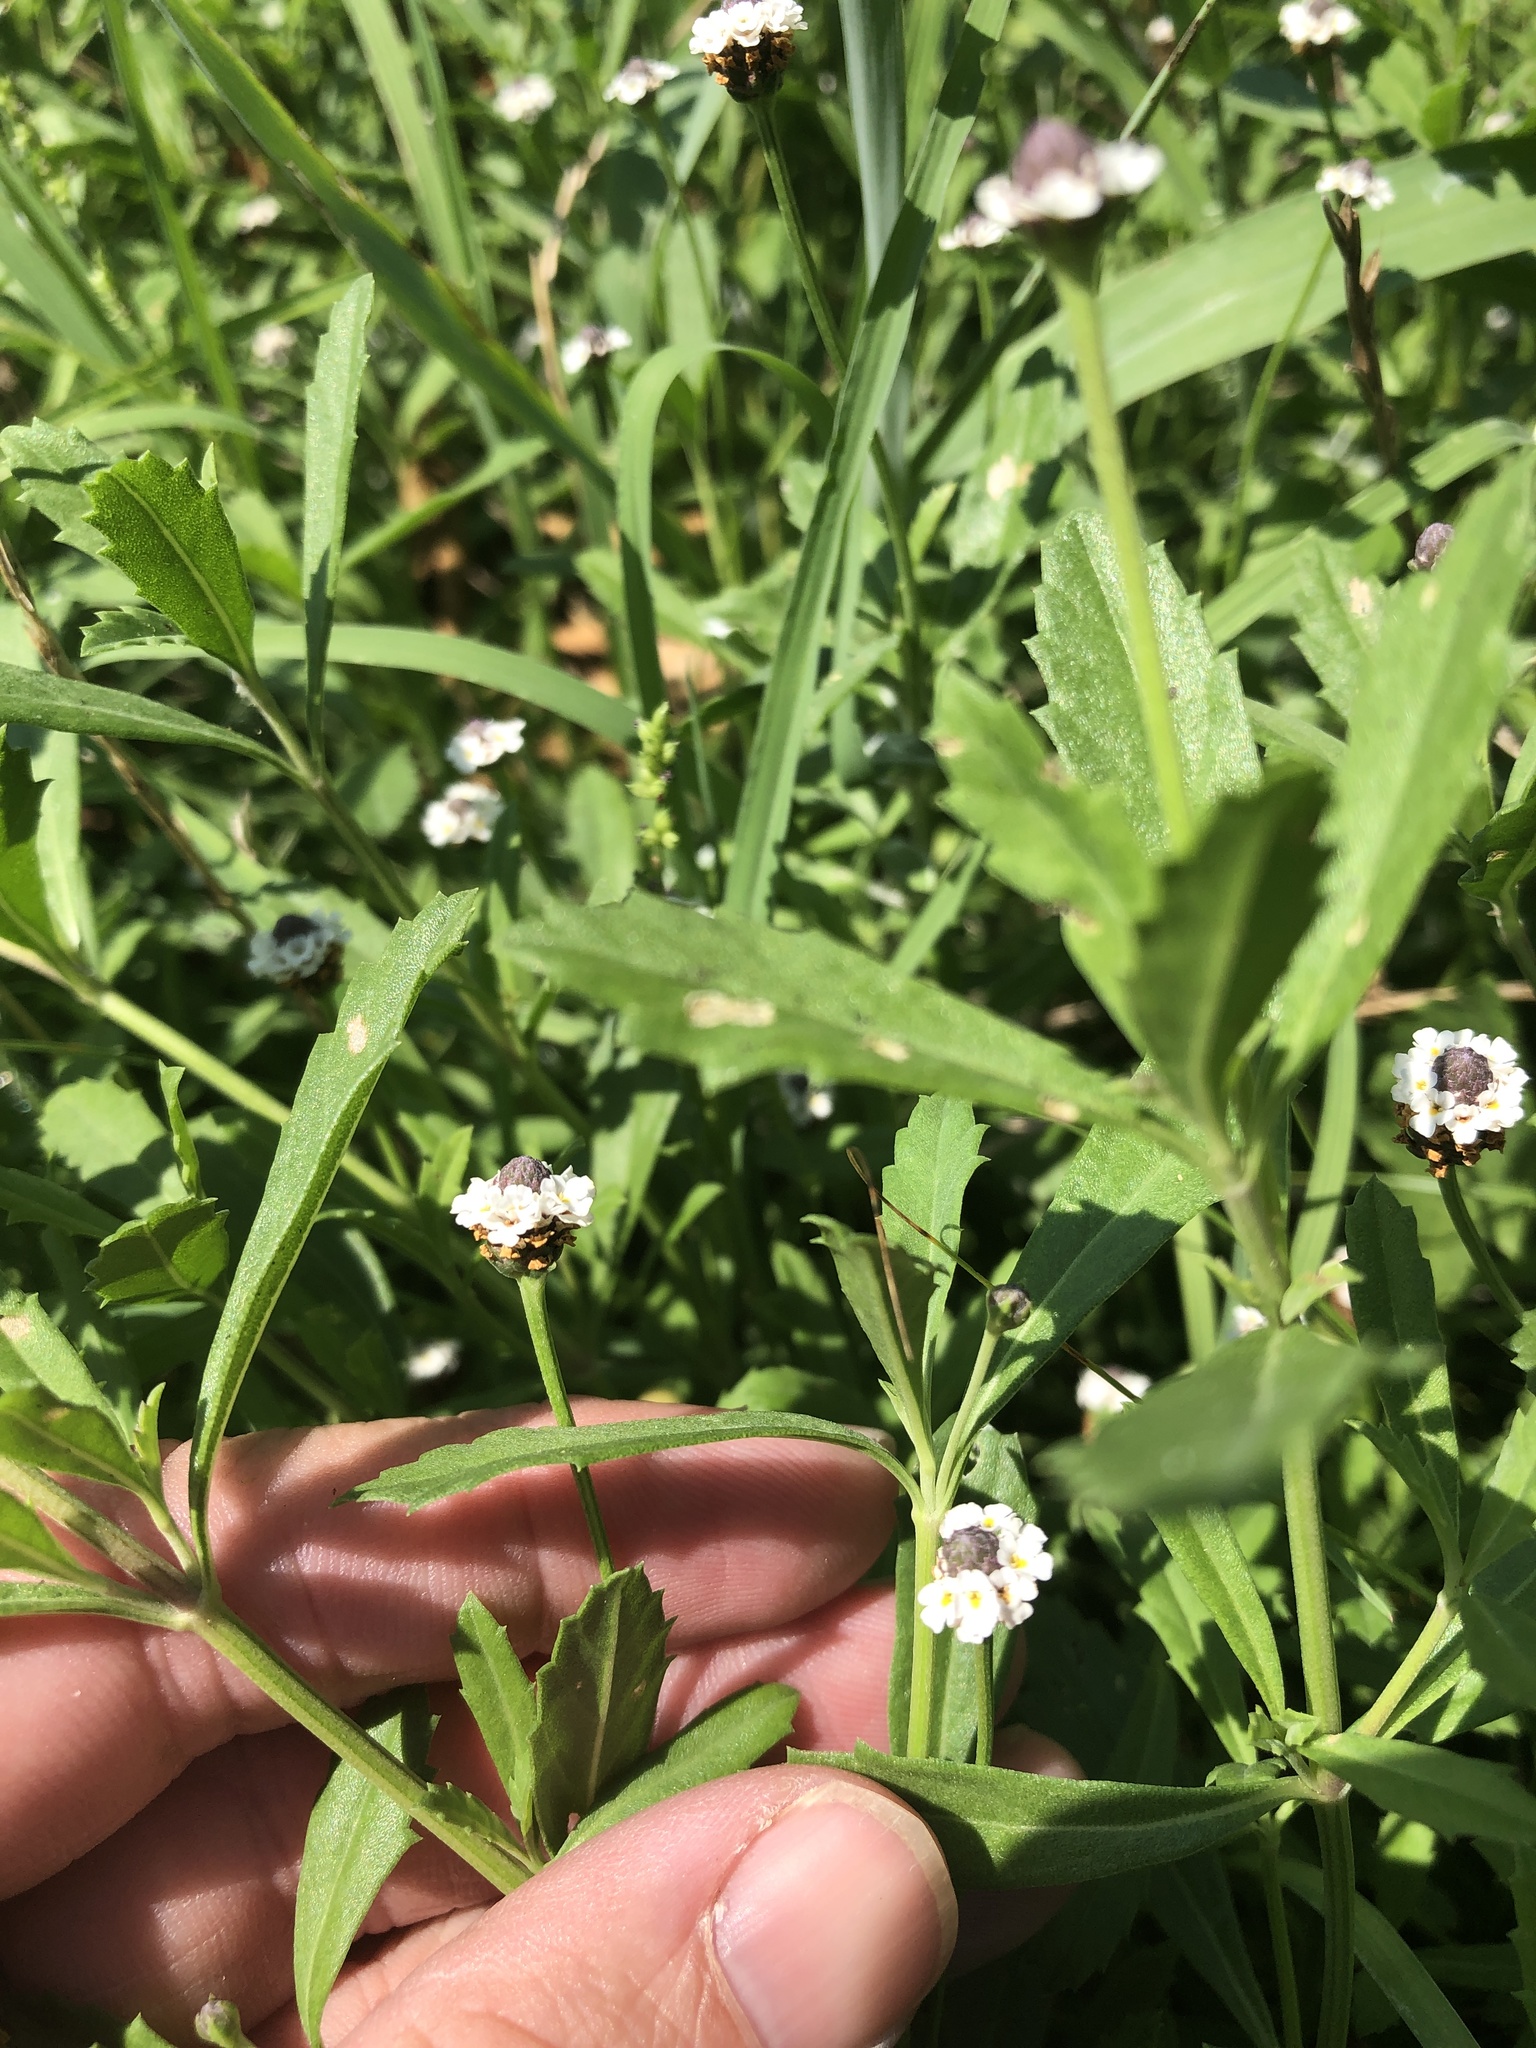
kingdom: Plantae
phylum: Tracheophyta
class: Magnoliopsida
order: Lamiales
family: Verbenaceae
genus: Phyla
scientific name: Phyla nodiflora
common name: Frogfruit
